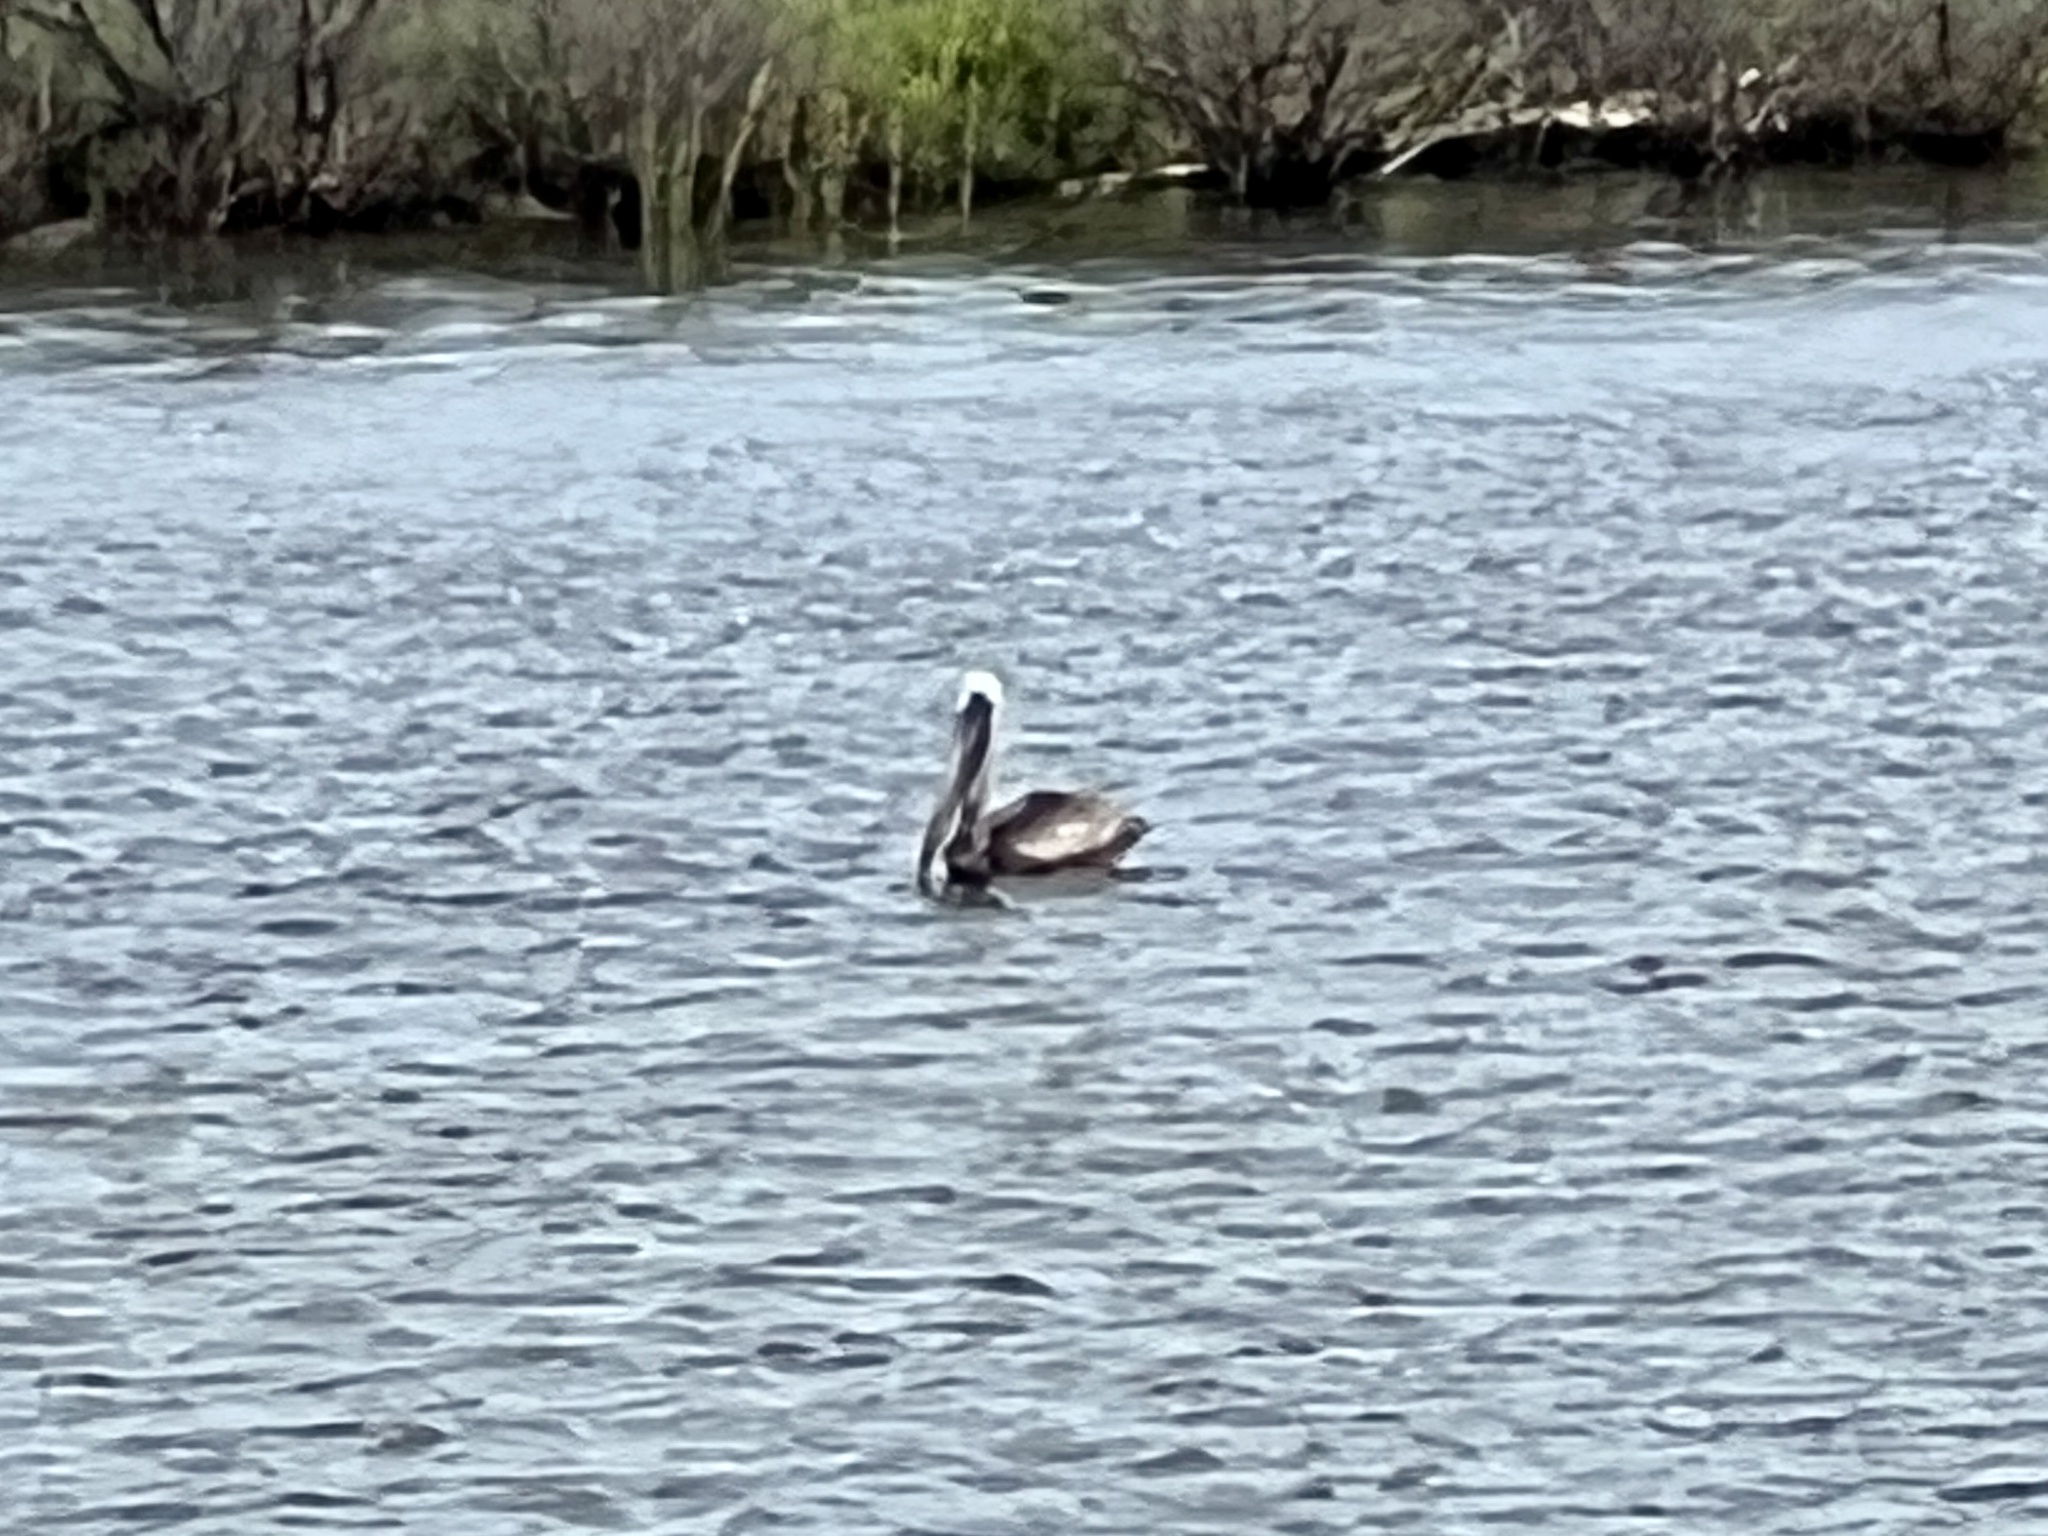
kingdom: Animalia
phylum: Chordata
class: Aves
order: Pelecaniformes
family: Pelecanidae
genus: Pelecanus
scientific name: Pelecanus occidentalis
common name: Brown pelican
